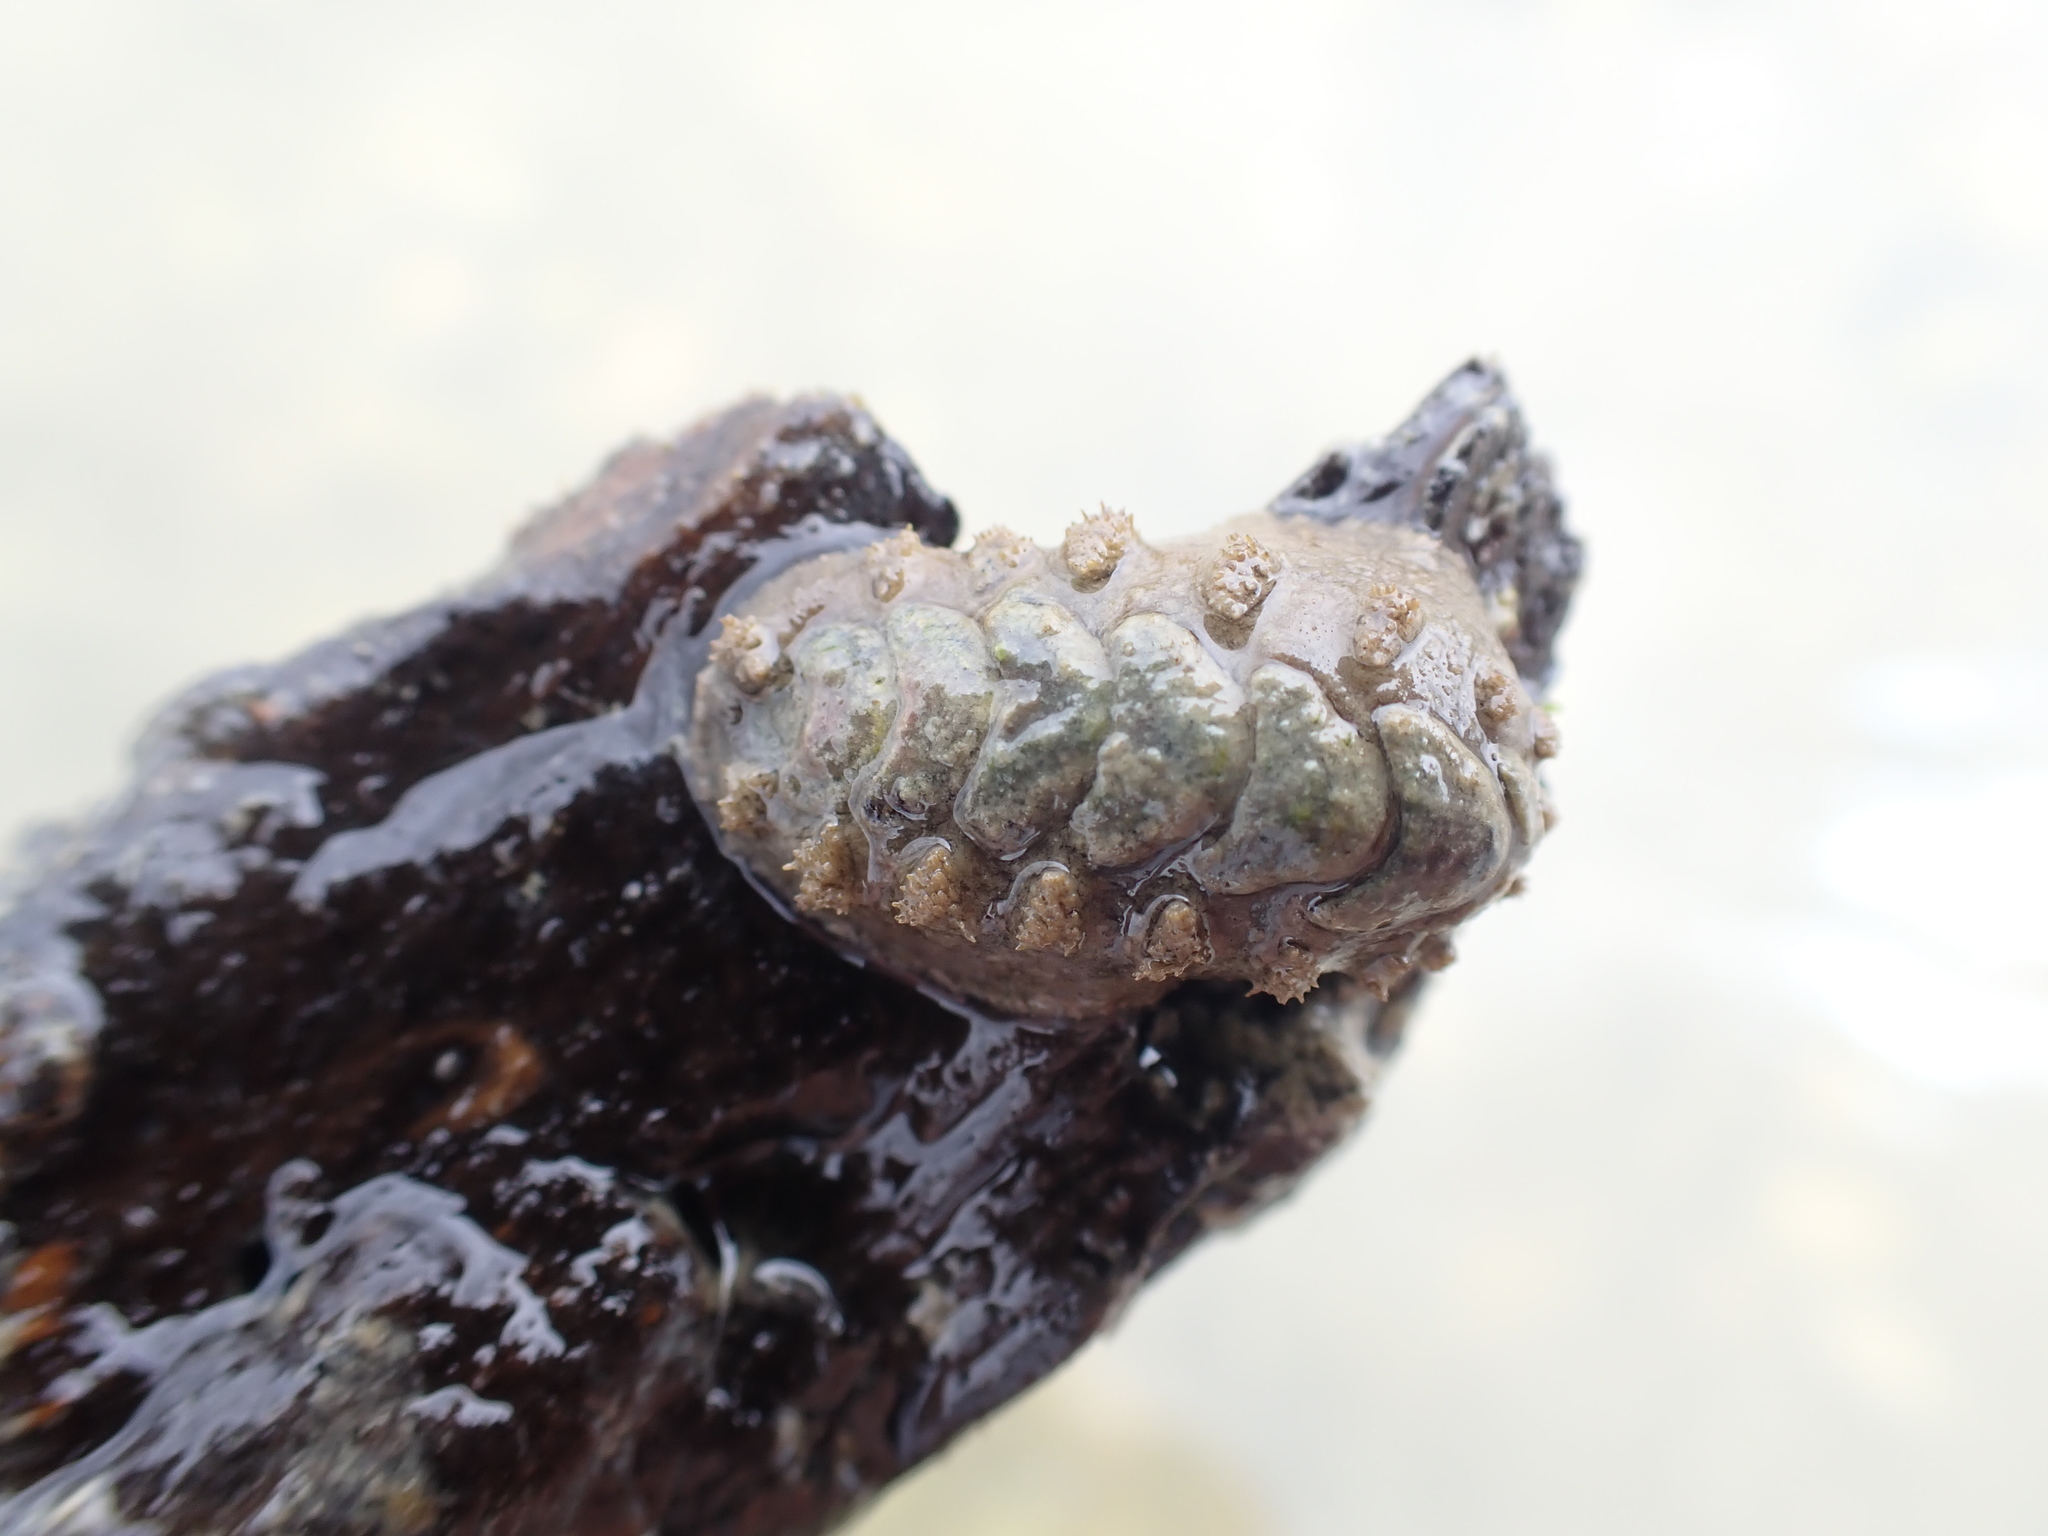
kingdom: Animalia
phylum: Mollusca
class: Polyplacophora
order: Chitonida
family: Acanthochitonidae
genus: Acanthochitona
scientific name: Acanthochitona zelandica
